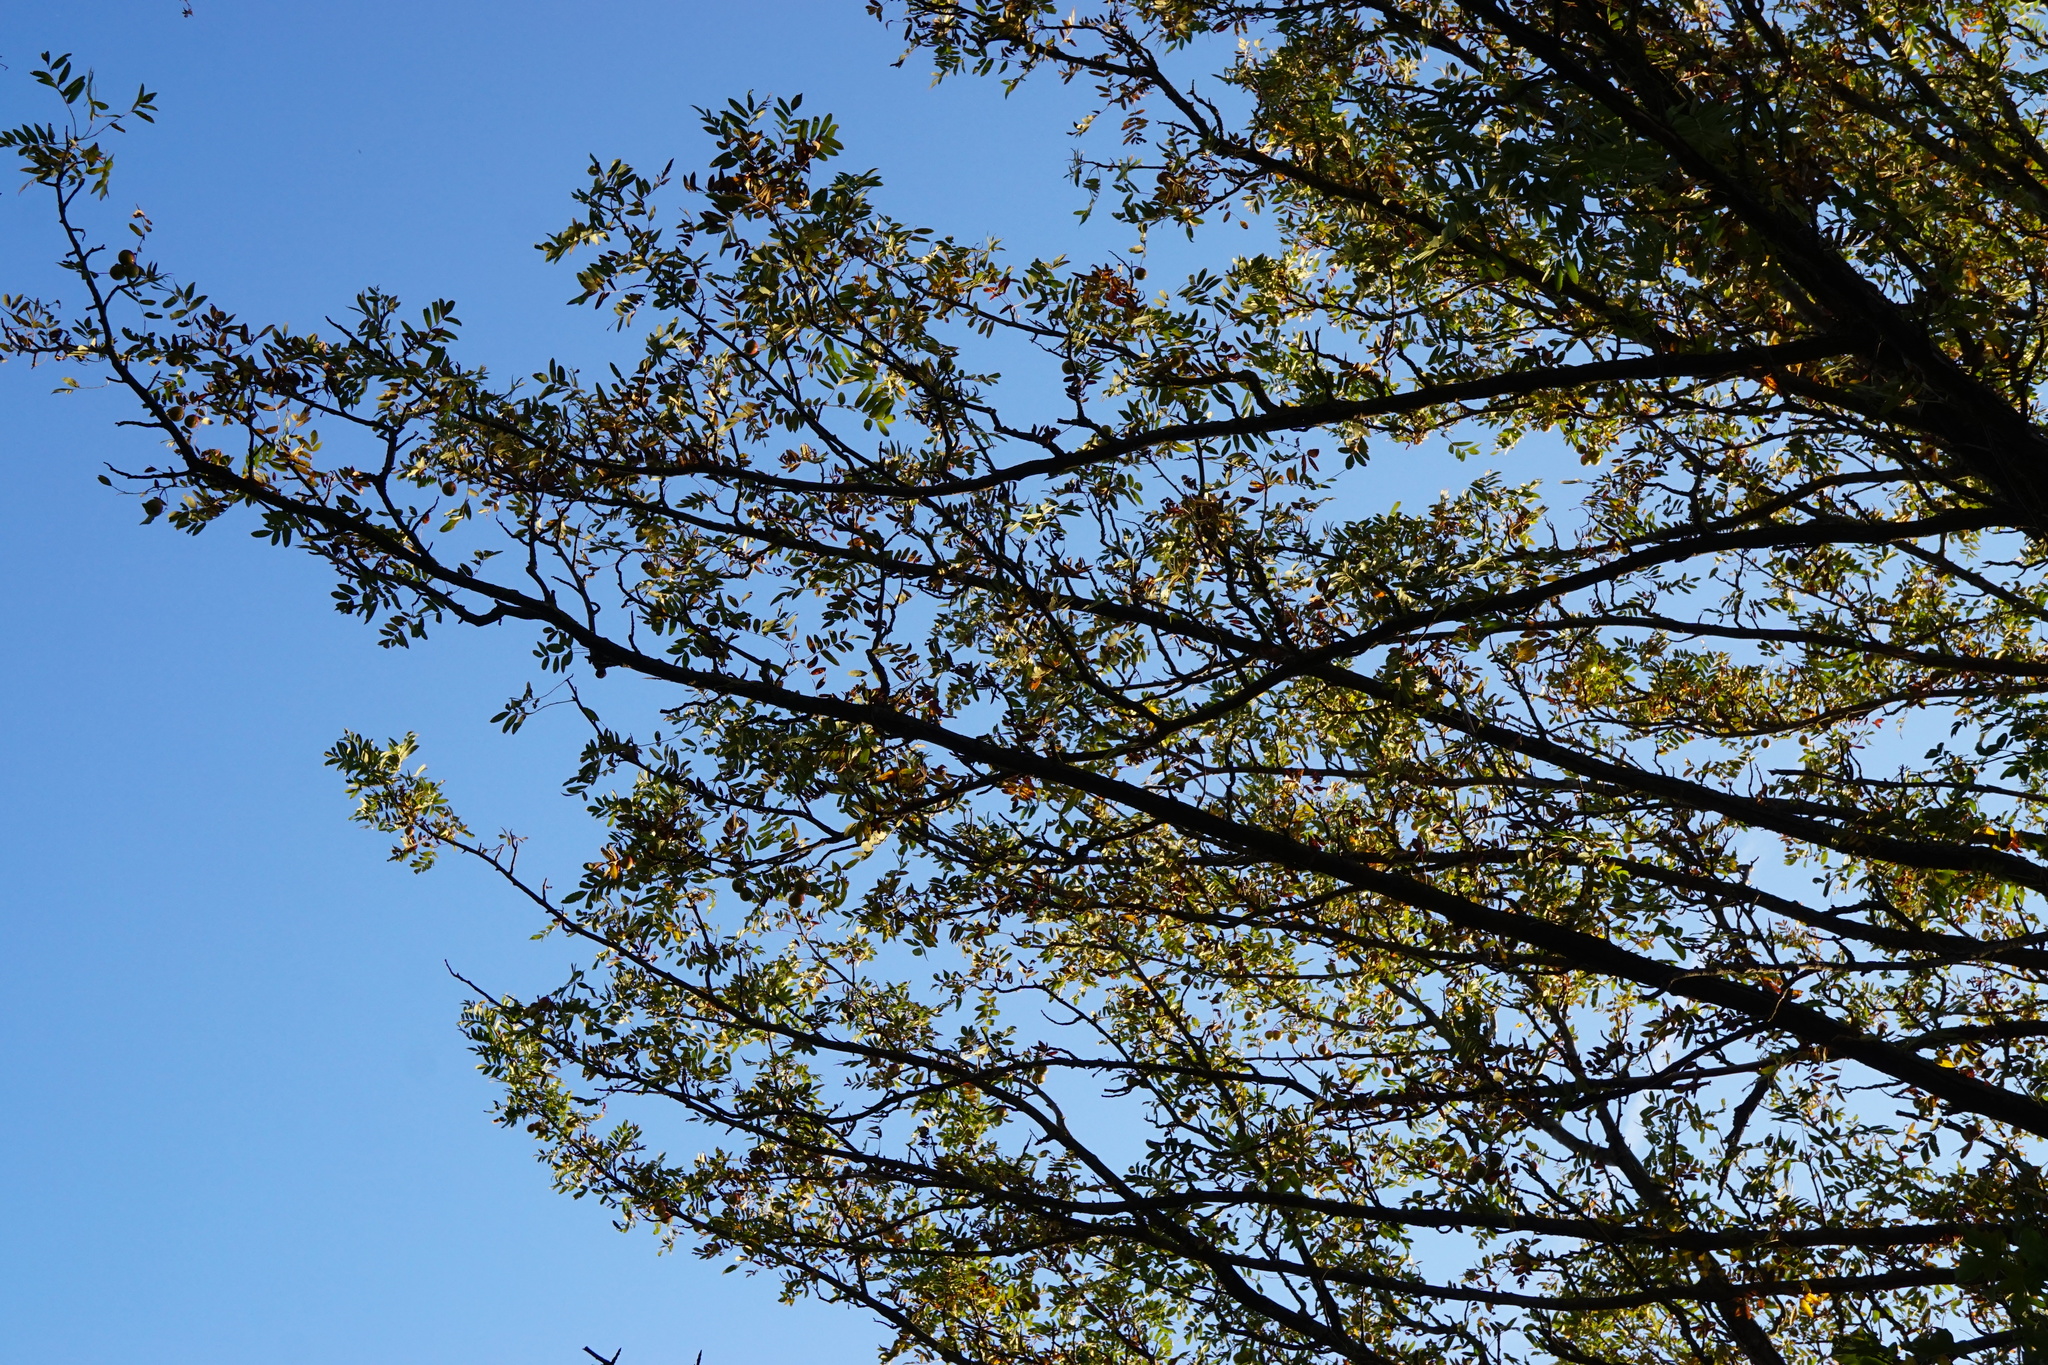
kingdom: Plantae
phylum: Tracheophyta
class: Magnoliopsida
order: Rosales
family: Rosaceae
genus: Cormus
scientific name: Cormus domestica
